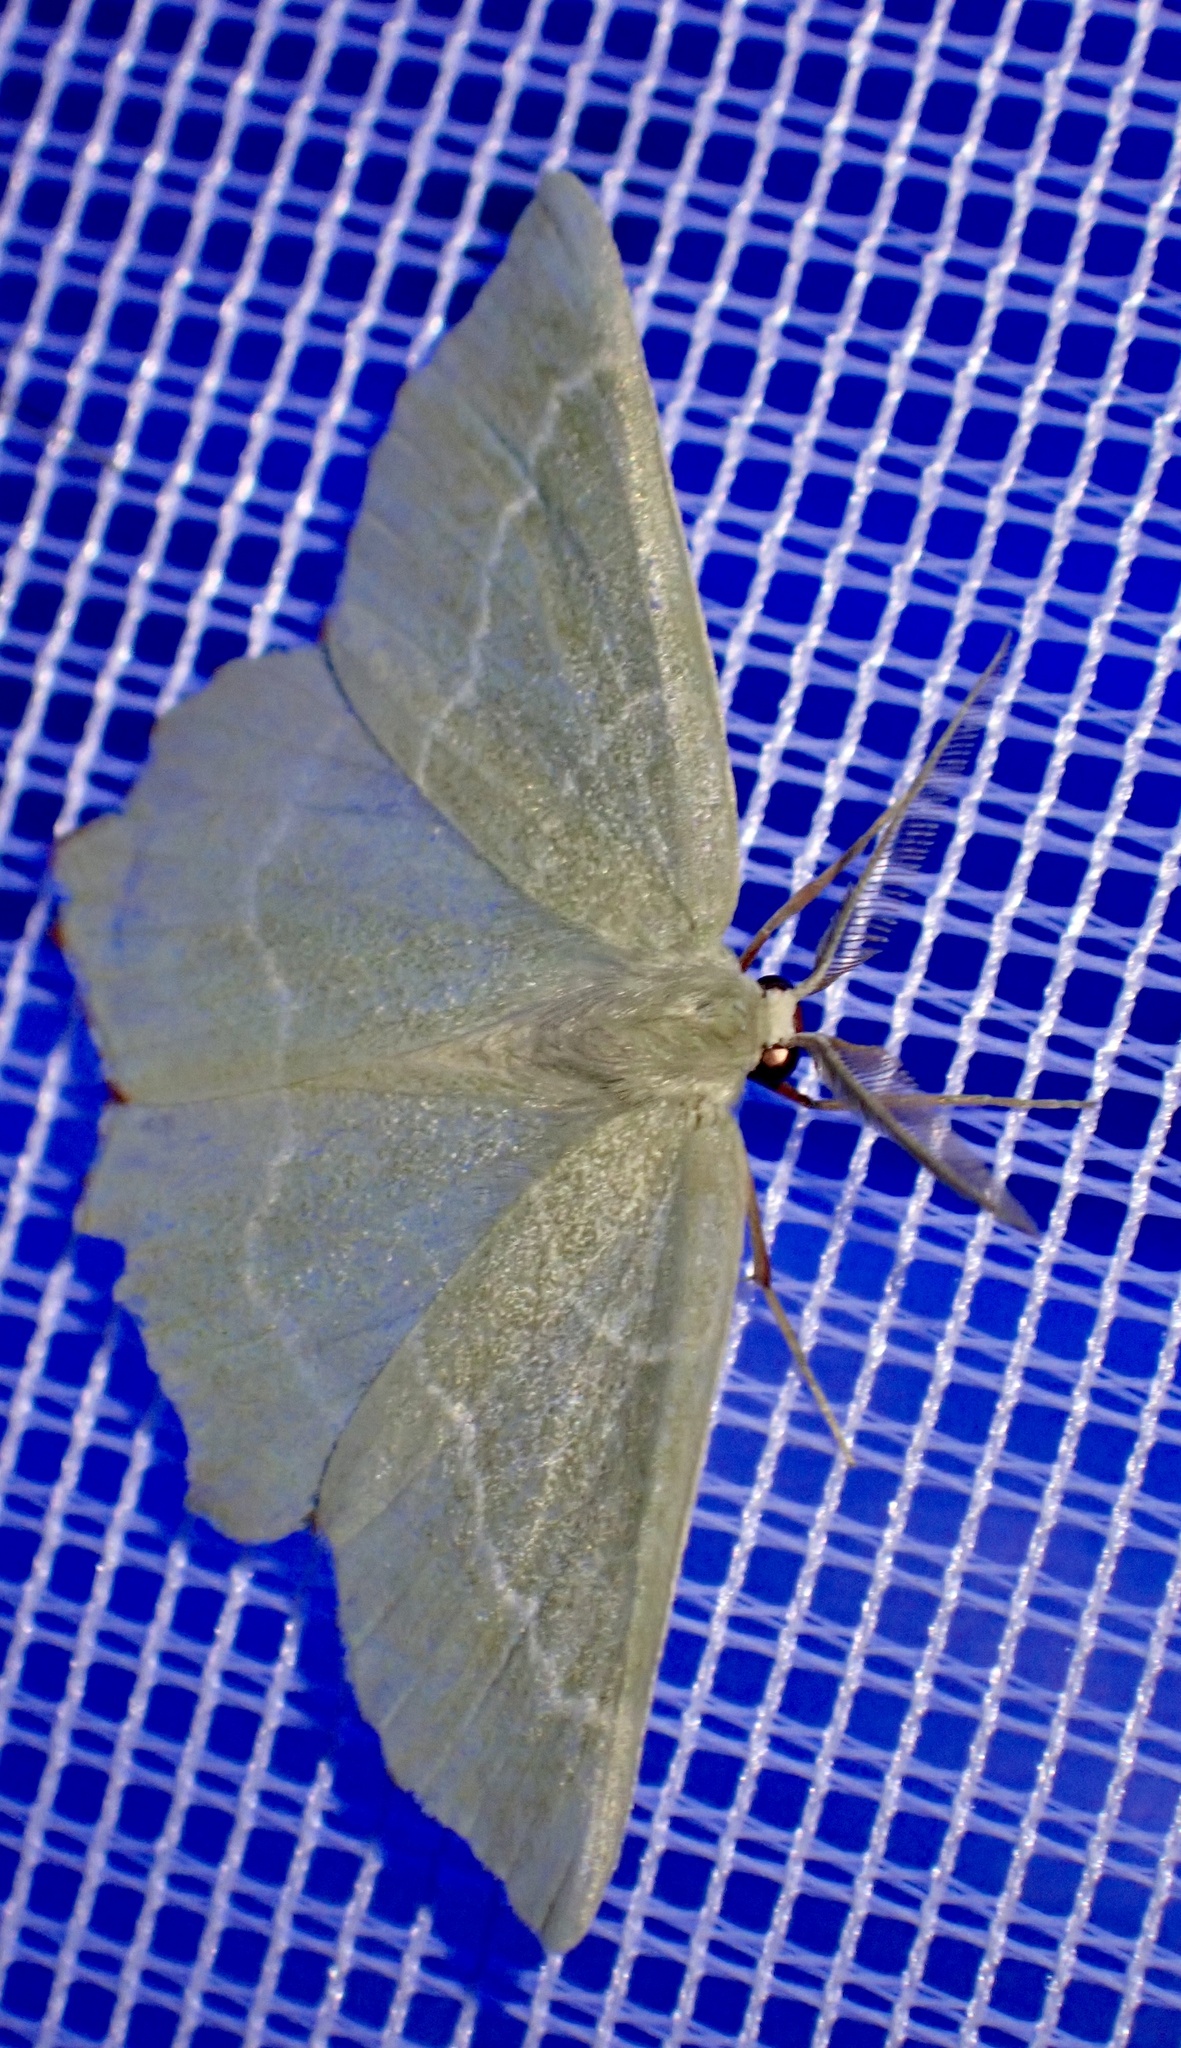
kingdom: Animalia
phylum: Arthropoda
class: Insecta
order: Lepidoptera
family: Geometridae
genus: Thalera
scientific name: Thalera fimbrialis
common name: Sussex emerald
